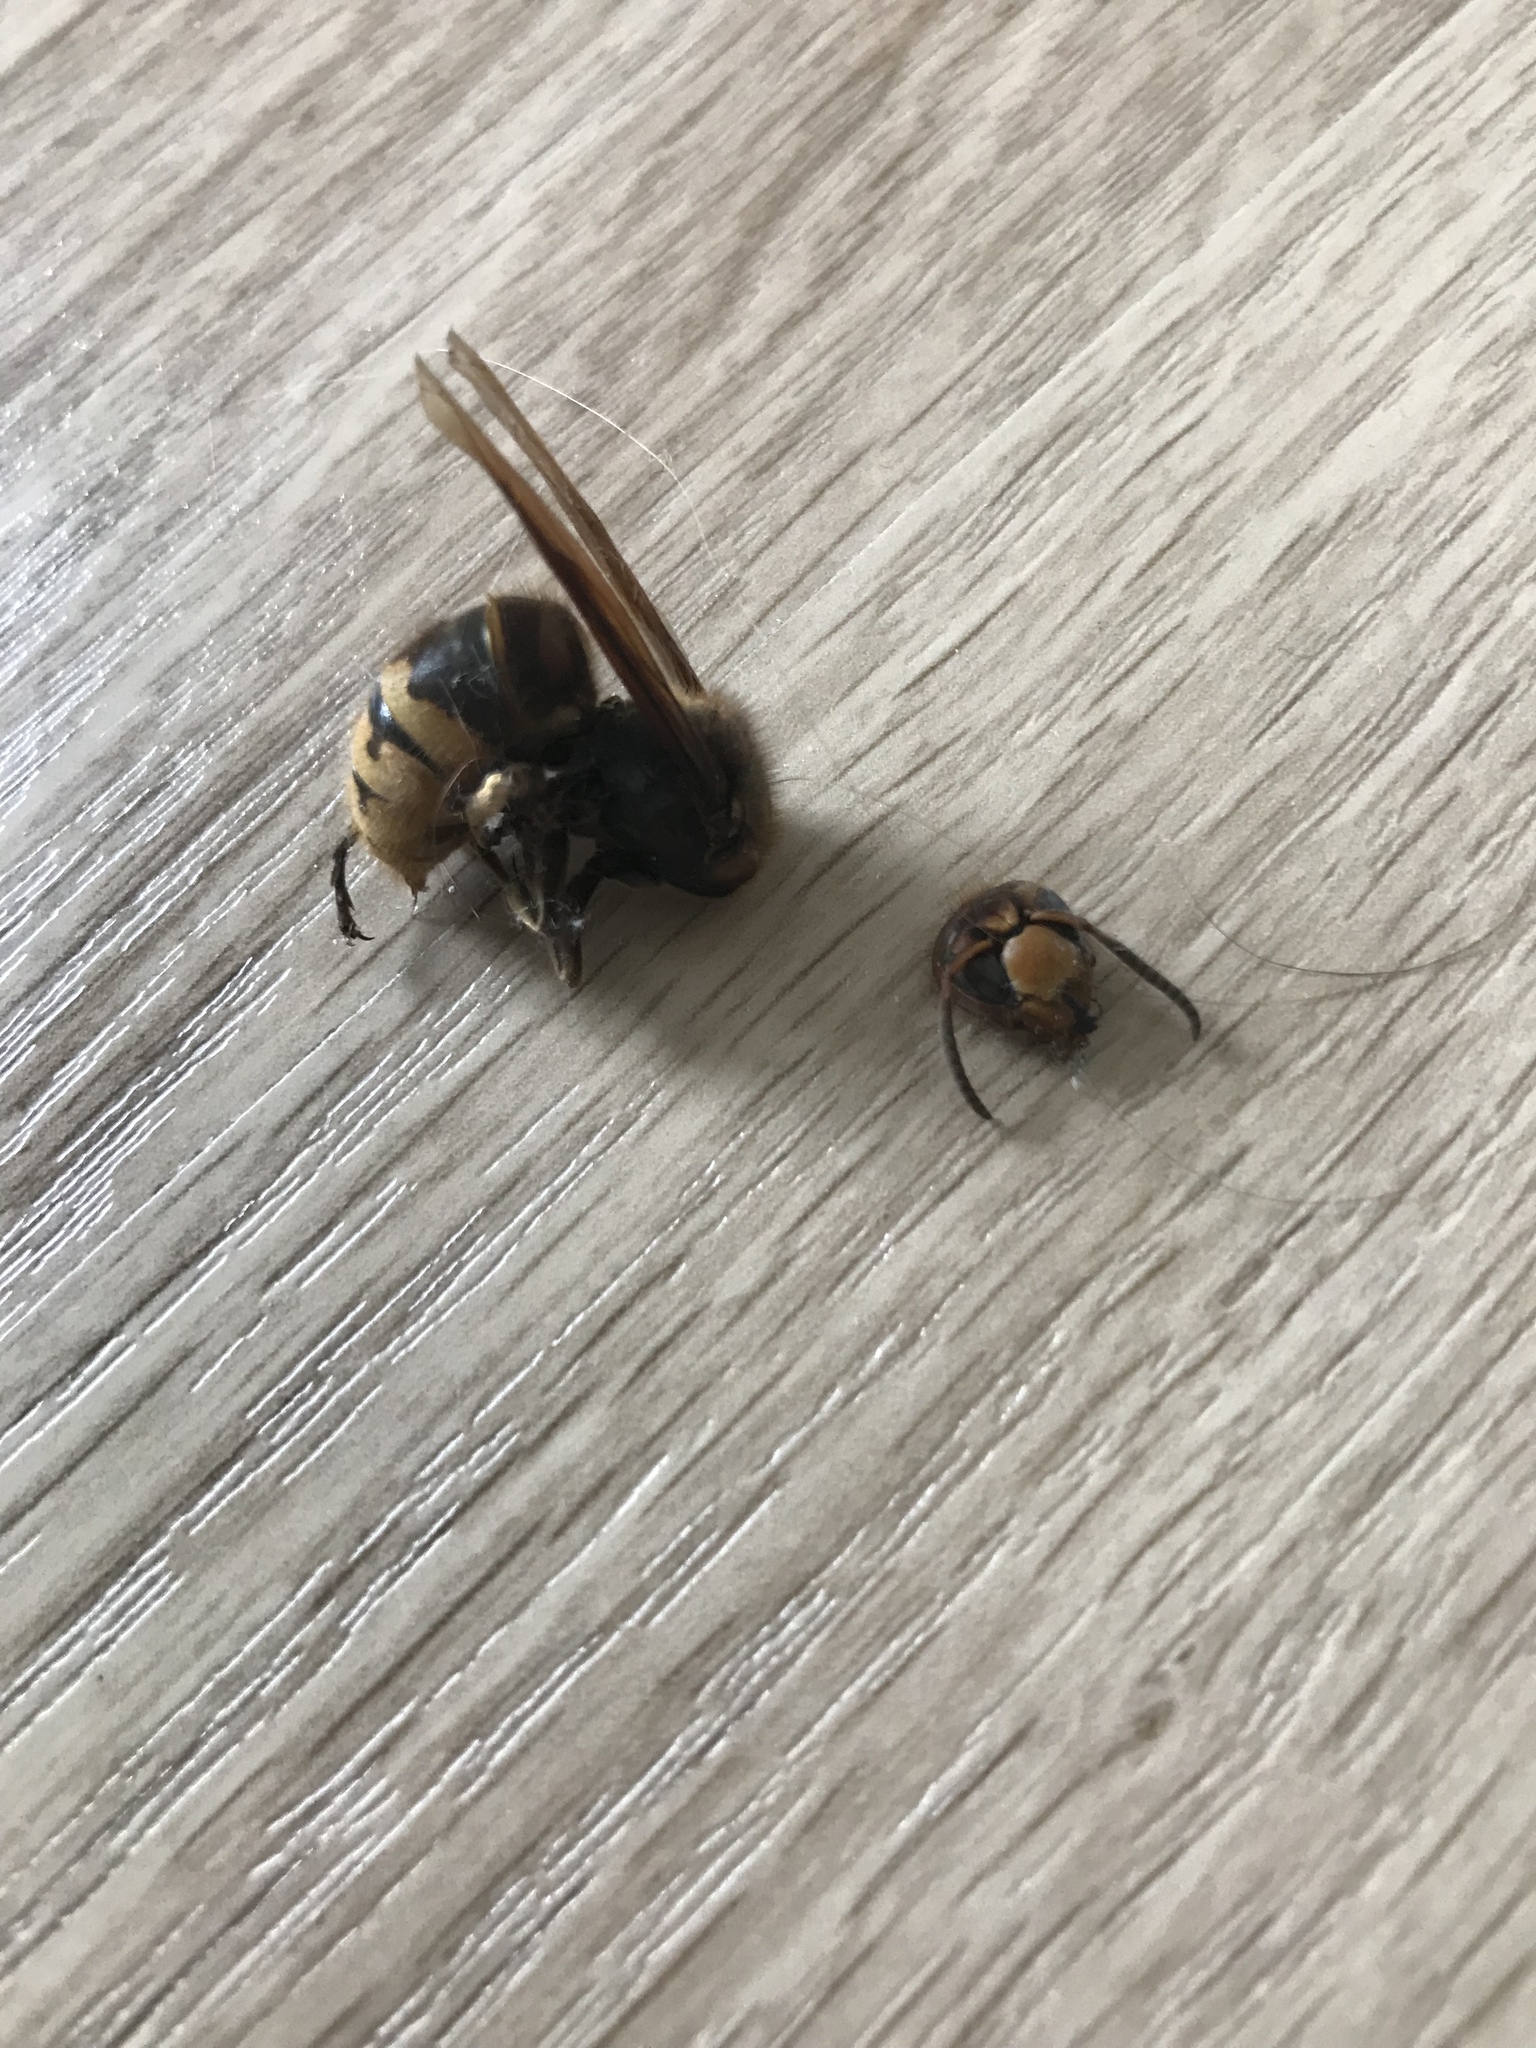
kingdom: Animalia
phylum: Arthropoda
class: Insecta
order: Hymenoptera
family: Vespidae
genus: Vespa
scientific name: Vespa crabro
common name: Hornet
